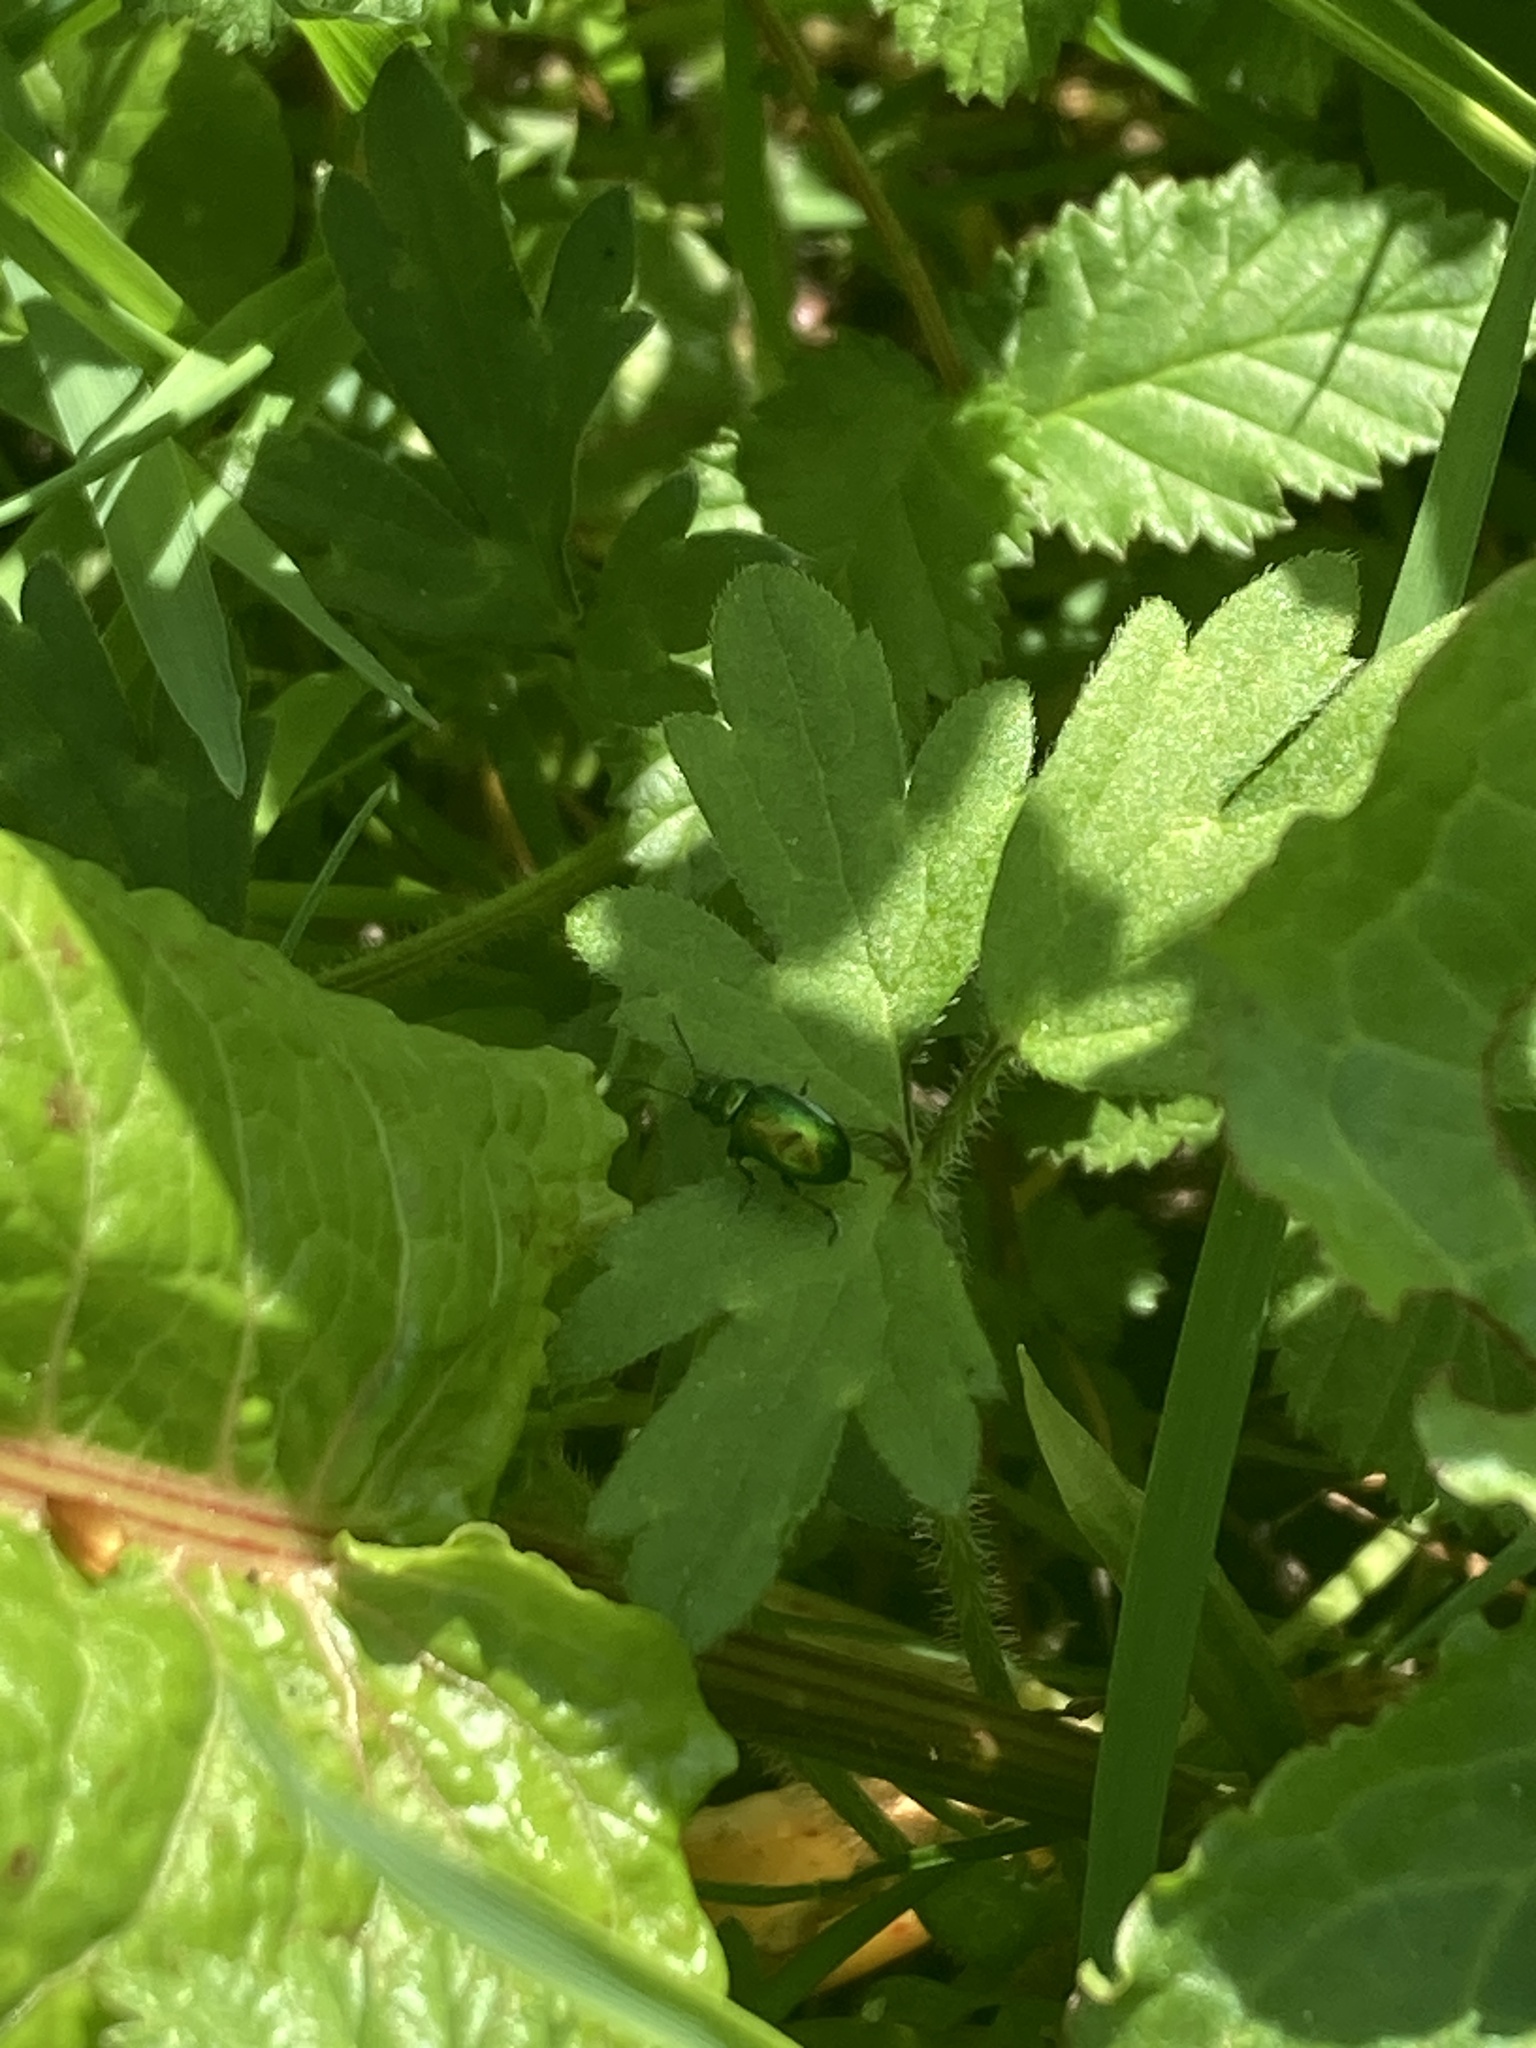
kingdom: Animalia
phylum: Arthropoda
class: Insecta
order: Coleoptera
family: Chrysomelidae
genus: Gastrophysa
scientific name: Gastrophysa viridula
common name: Green dock beetle
